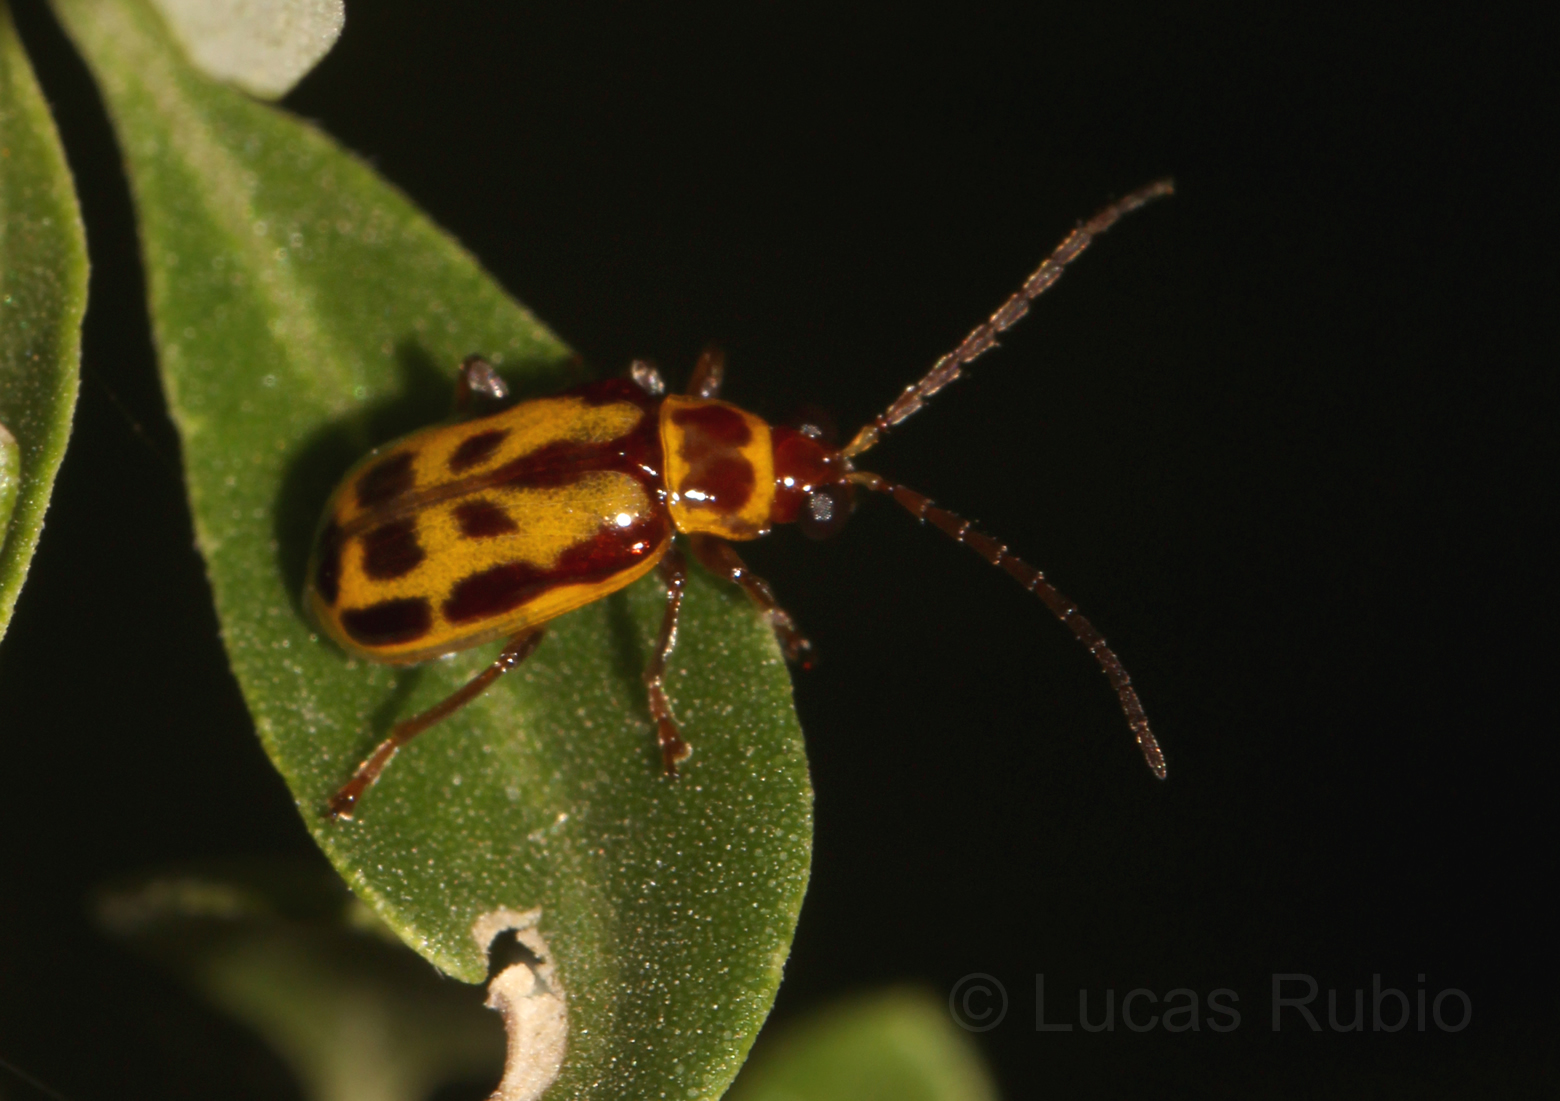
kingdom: Animalia
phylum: Arthropoda
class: Insecta
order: Coleoptera
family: Chrysomelidae
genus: Paranapiacaba
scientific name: Paranapiacaba significata
